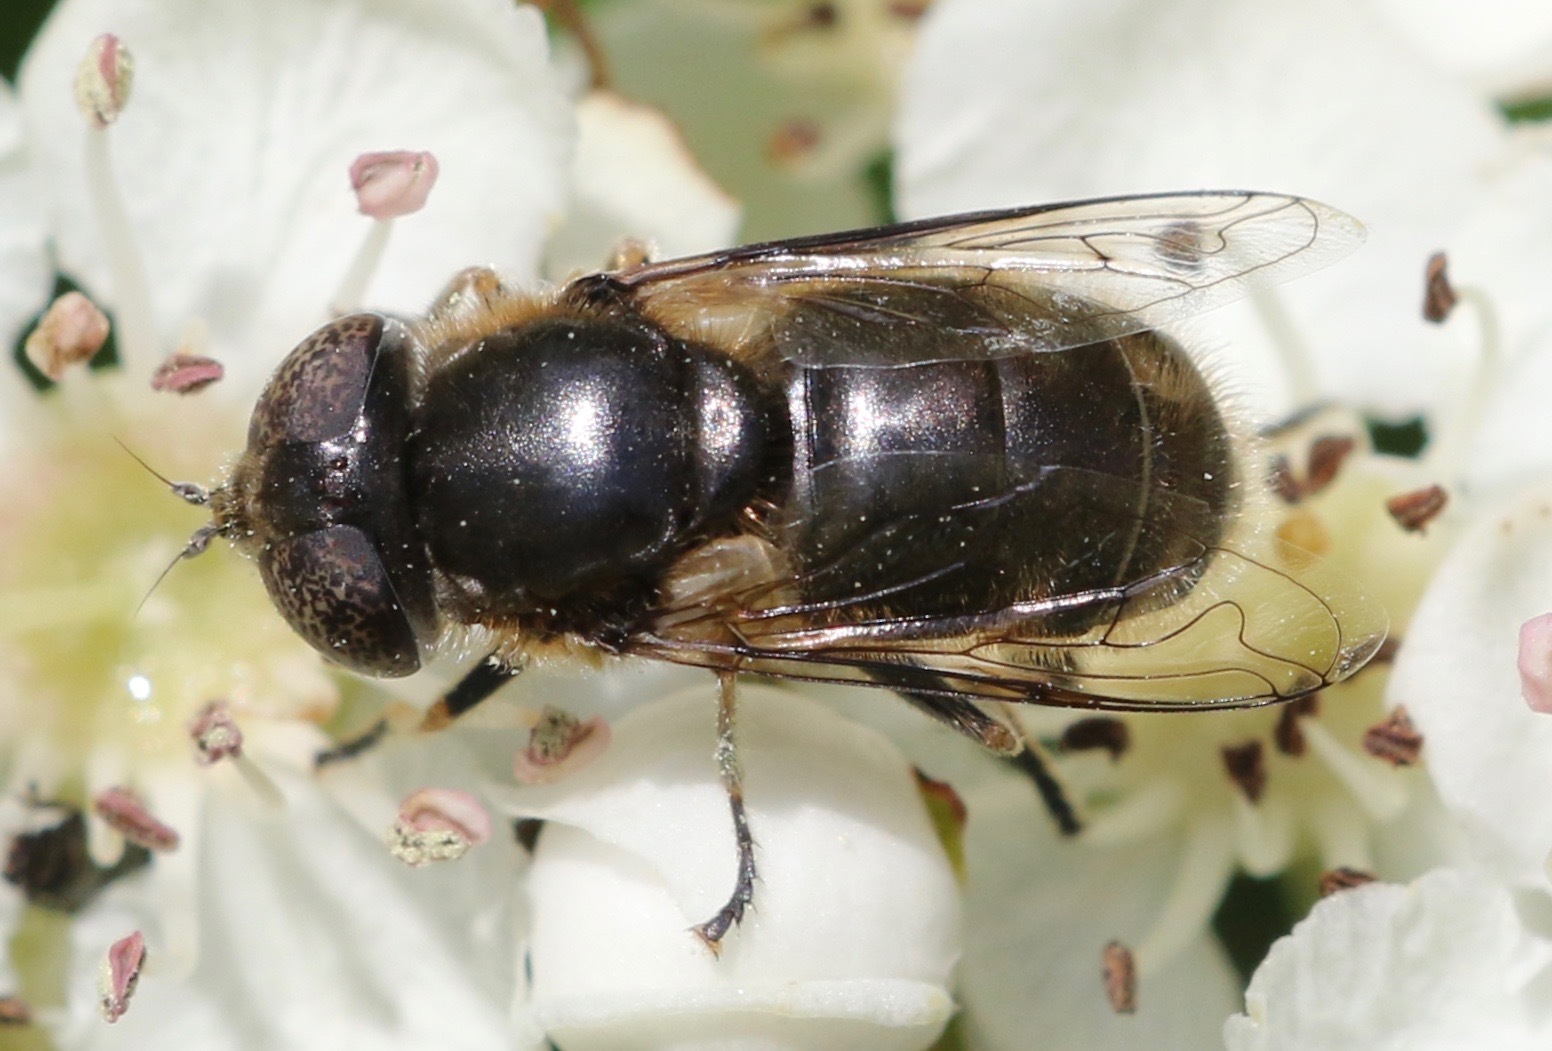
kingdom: Animalia
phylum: Arthropoda
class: Insecta
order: Diptera
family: Syrphidae
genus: Eristalinus
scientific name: Eristalinus aeneus
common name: Syrphid fly
